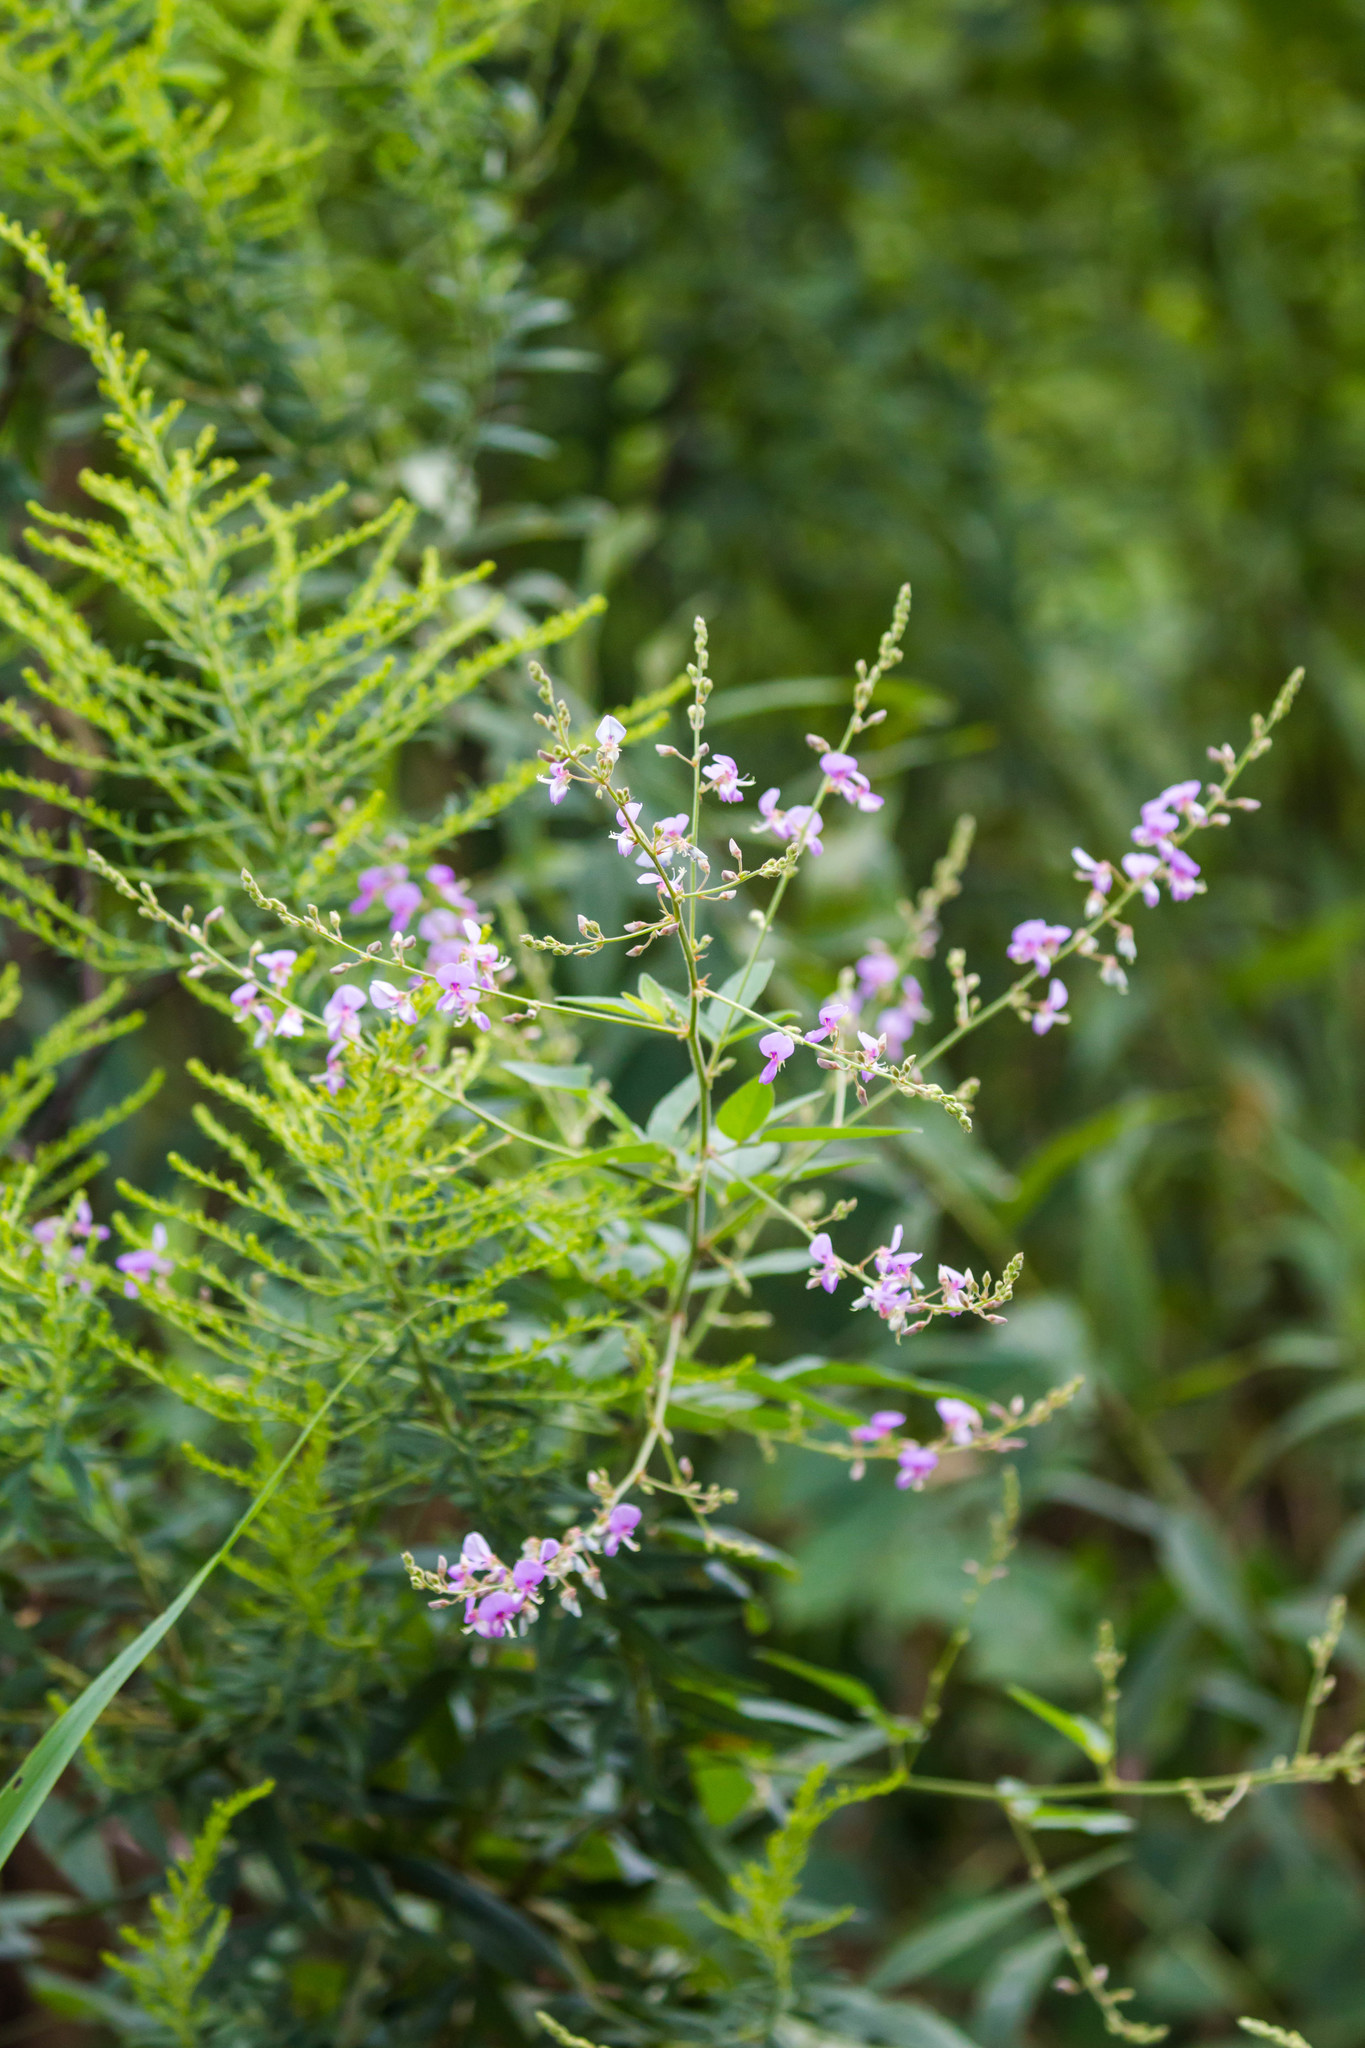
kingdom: Plantae
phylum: Tracheophyta
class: Magnoliopsida
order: Fabales
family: Fabaceae
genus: Desmodium
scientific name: Desmodium paniculatum
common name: Panicled tick-clover
